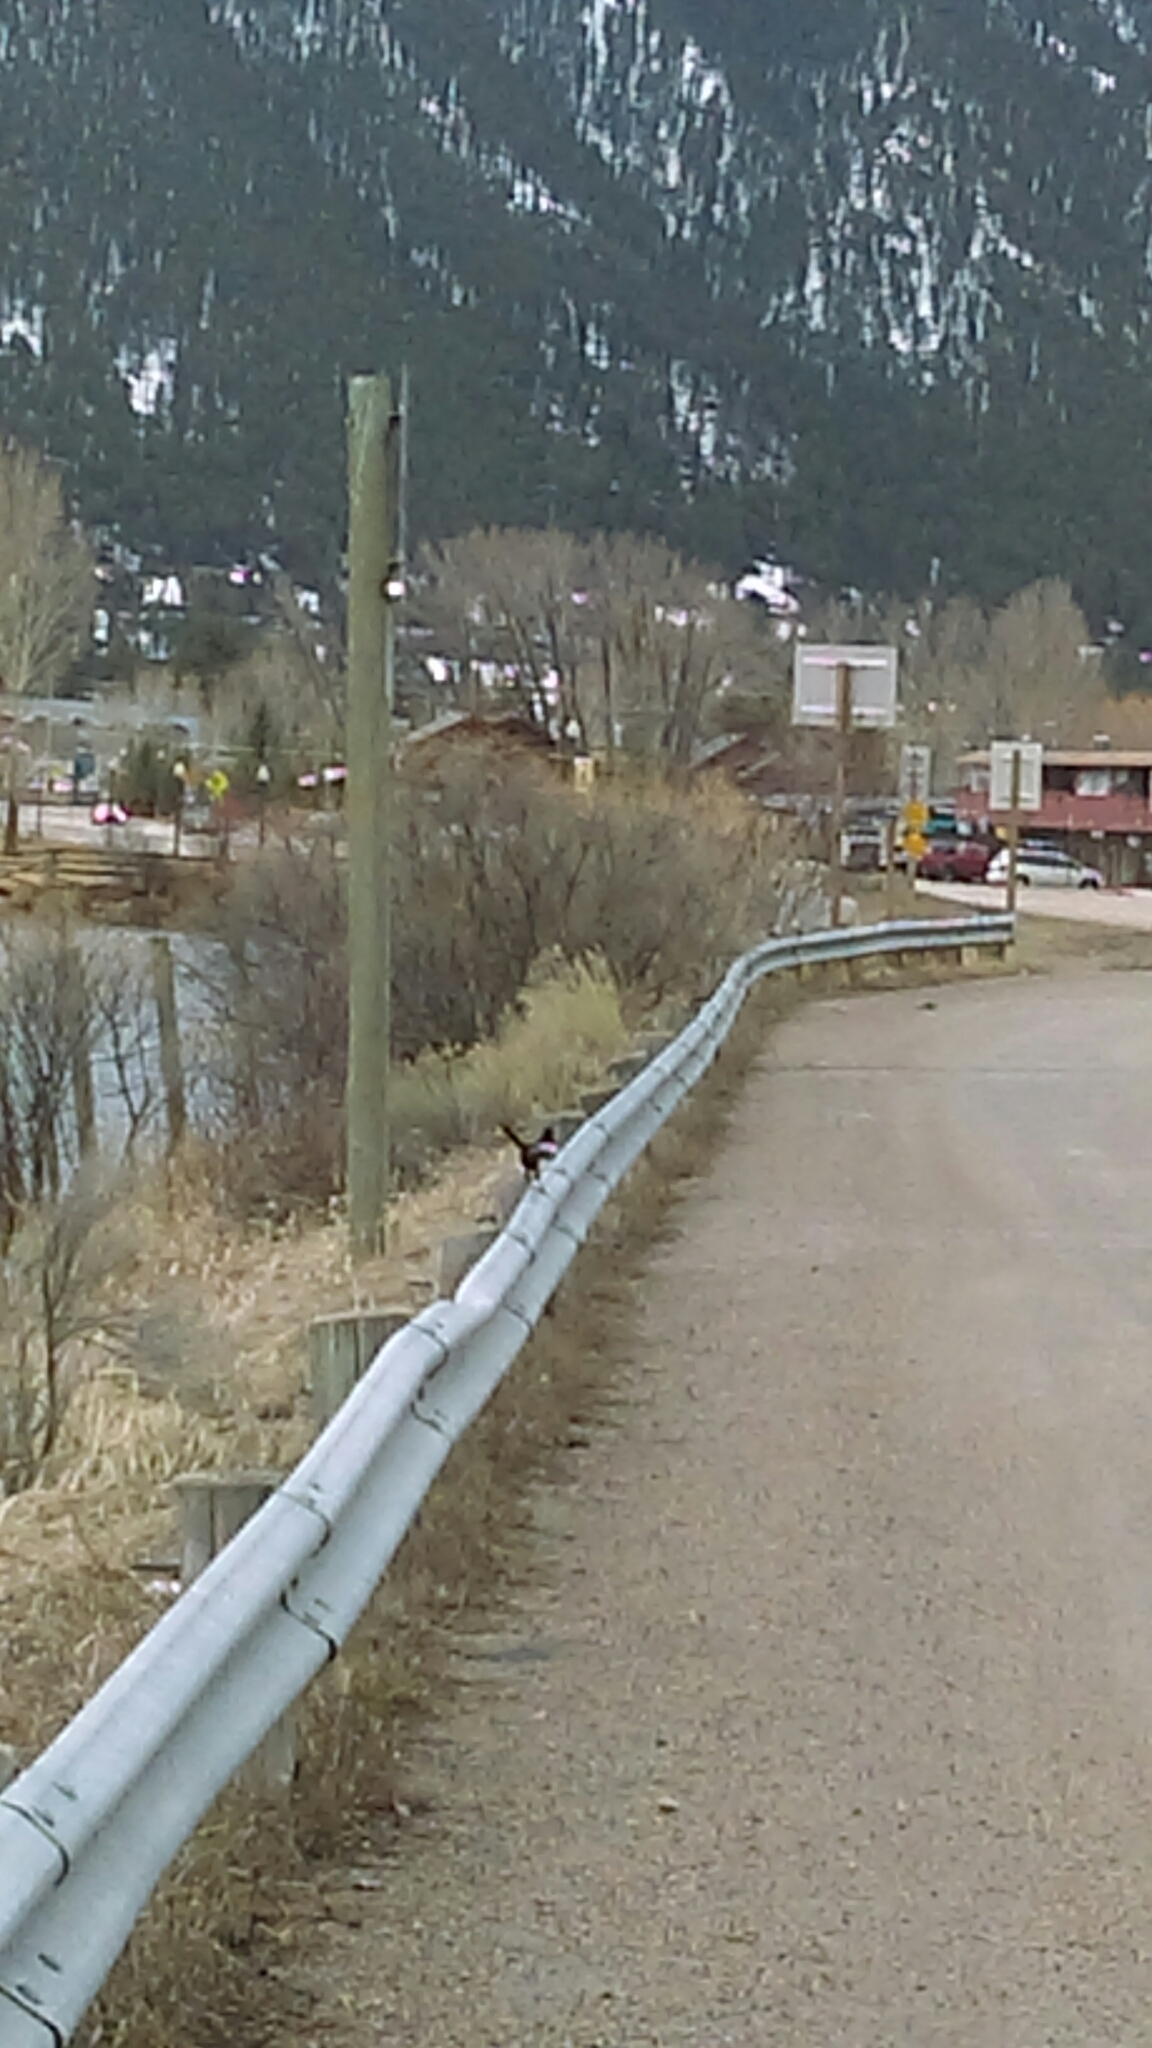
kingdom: Animalia
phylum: Chordata
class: Aves
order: Passeriformes
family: Corvidae
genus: Pica
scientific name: Pica hudsonia
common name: Black-billed magpie
